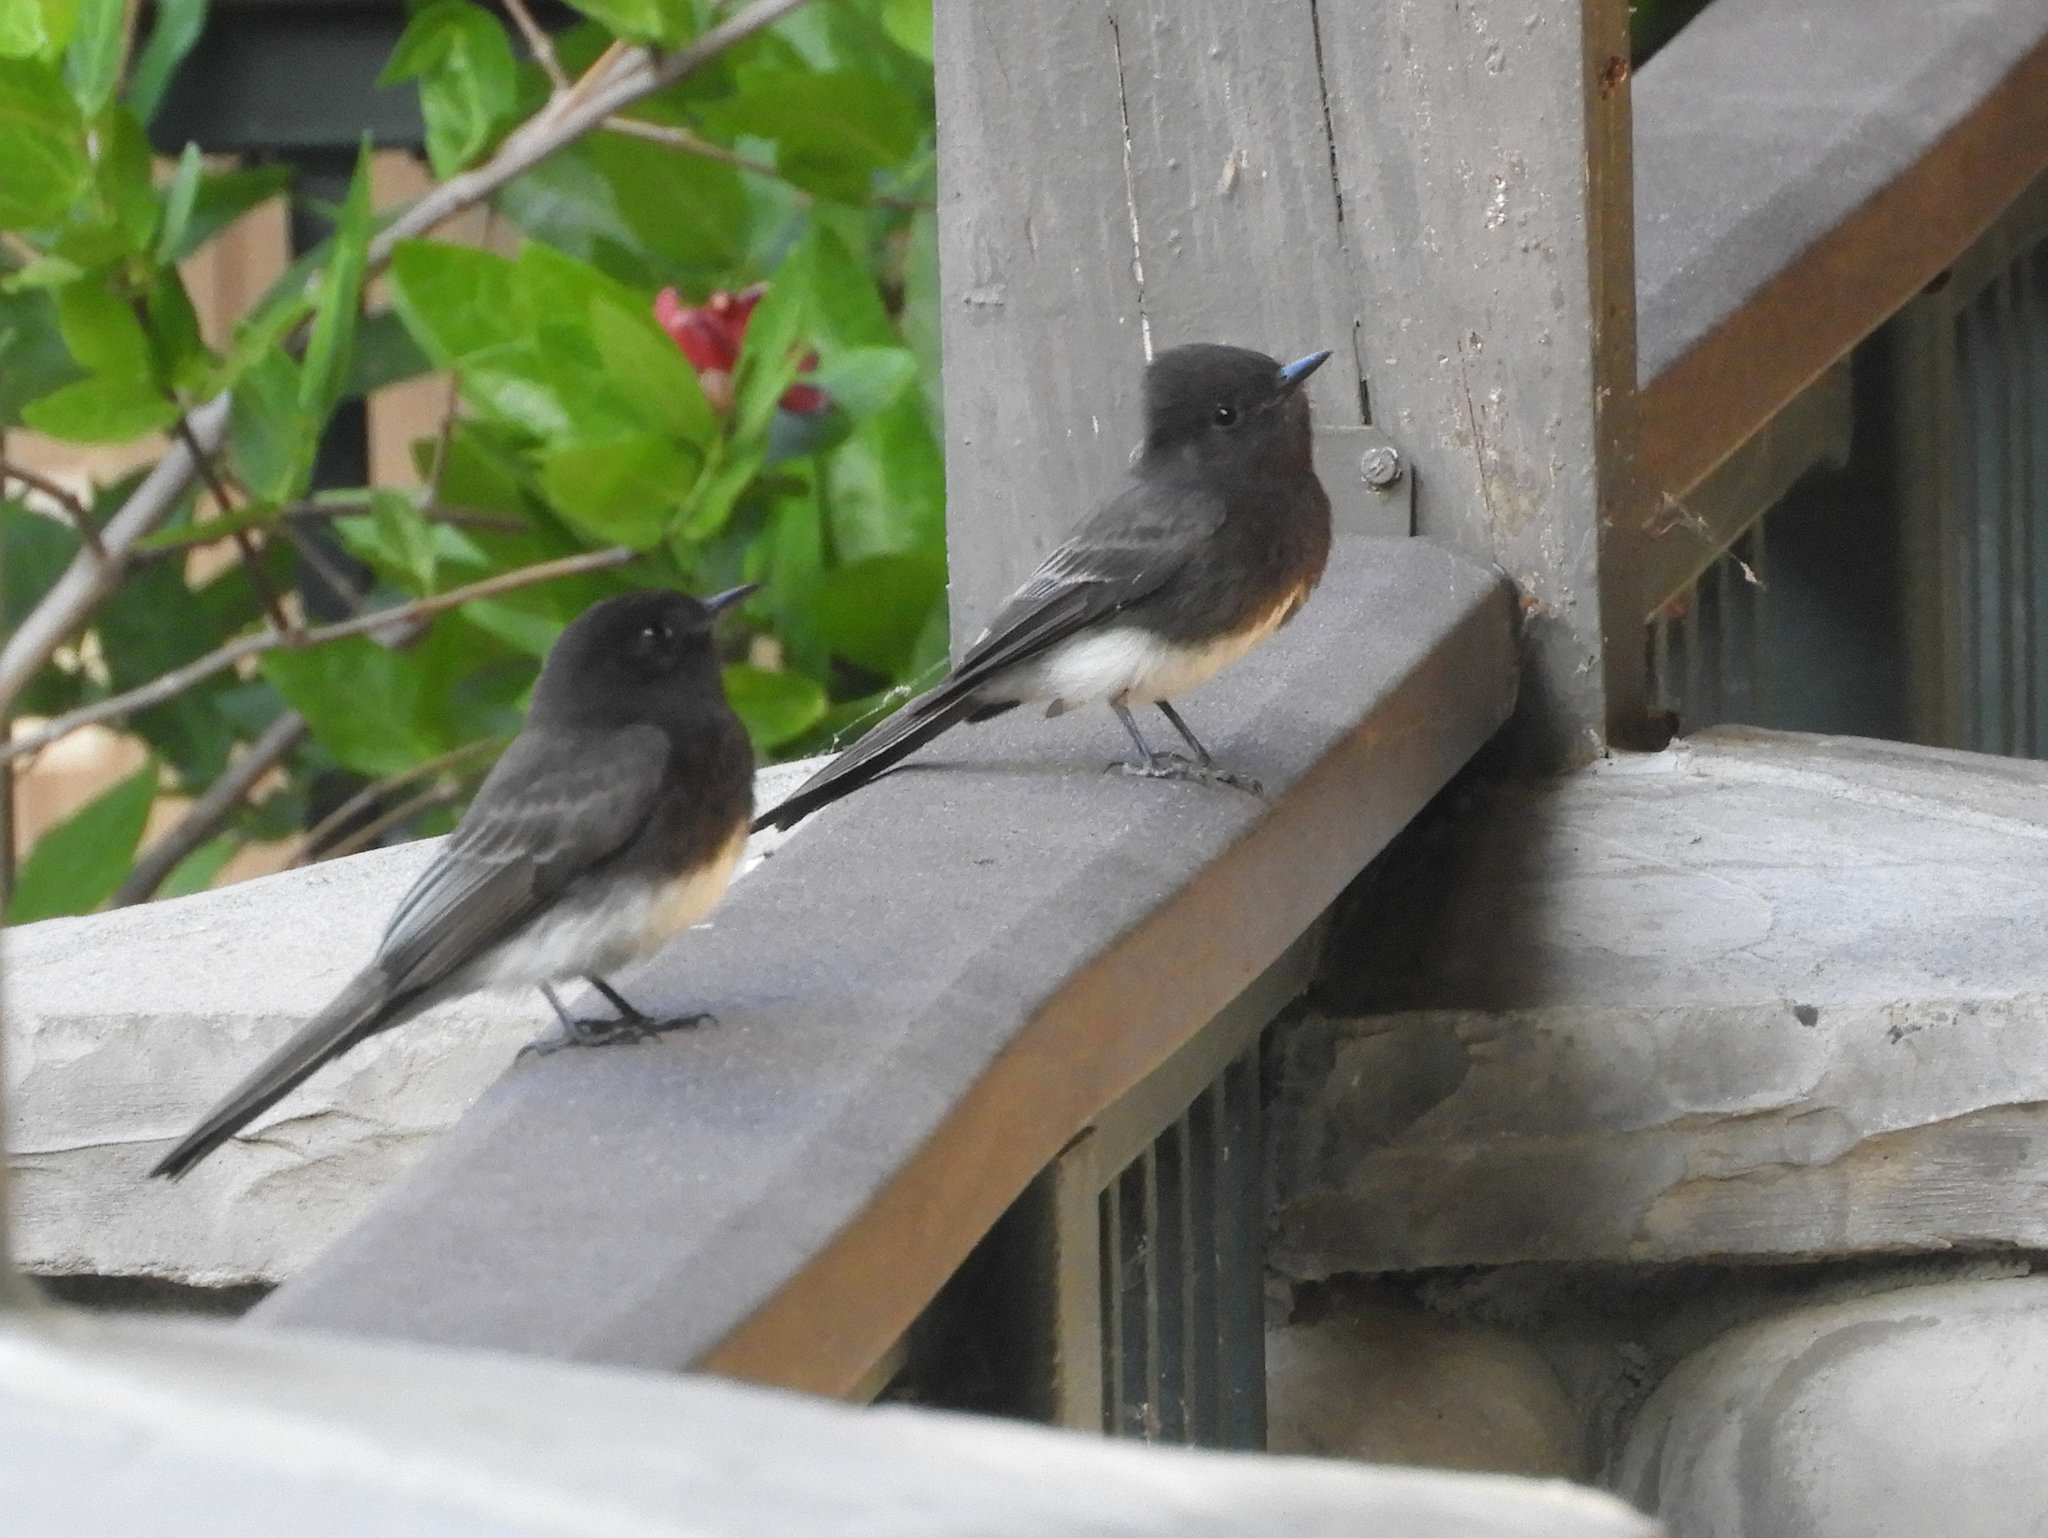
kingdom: Animalia
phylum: Chordata
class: Aves
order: Passeriformes
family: Tyrannidae
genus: Sayornis
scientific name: Sayornis nigricans
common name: Black phoebe
